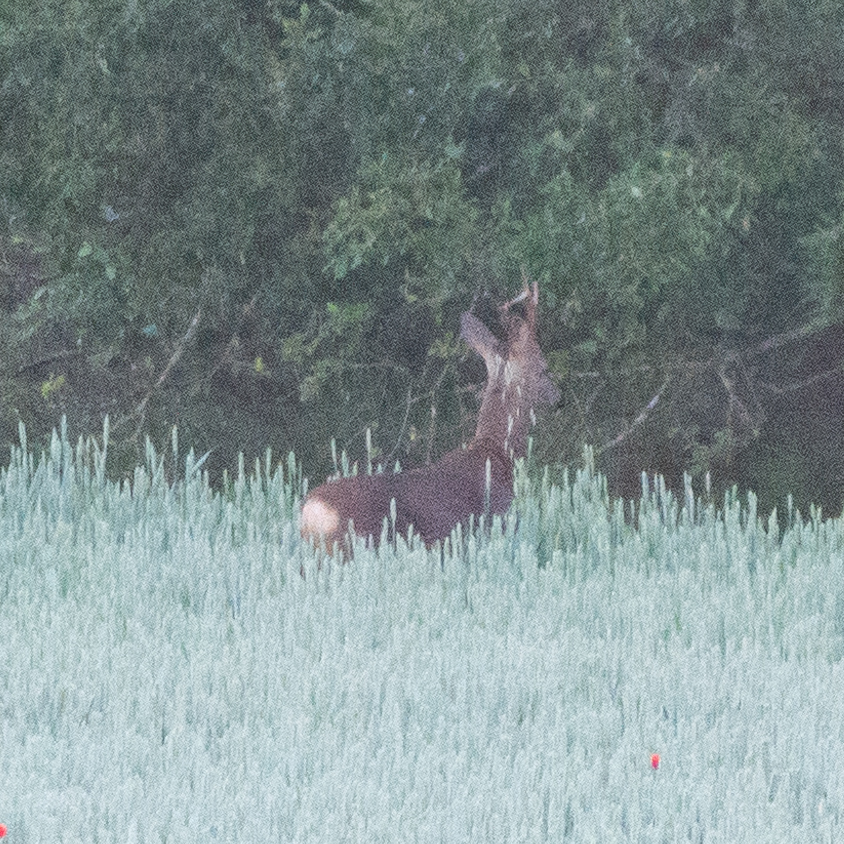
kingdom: Animalia
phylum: Chordata
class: Mammalia
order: Artiodactyla
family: Cervidae
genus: Capreolus
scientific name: Capreolus capreolus
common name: Western roe deer
